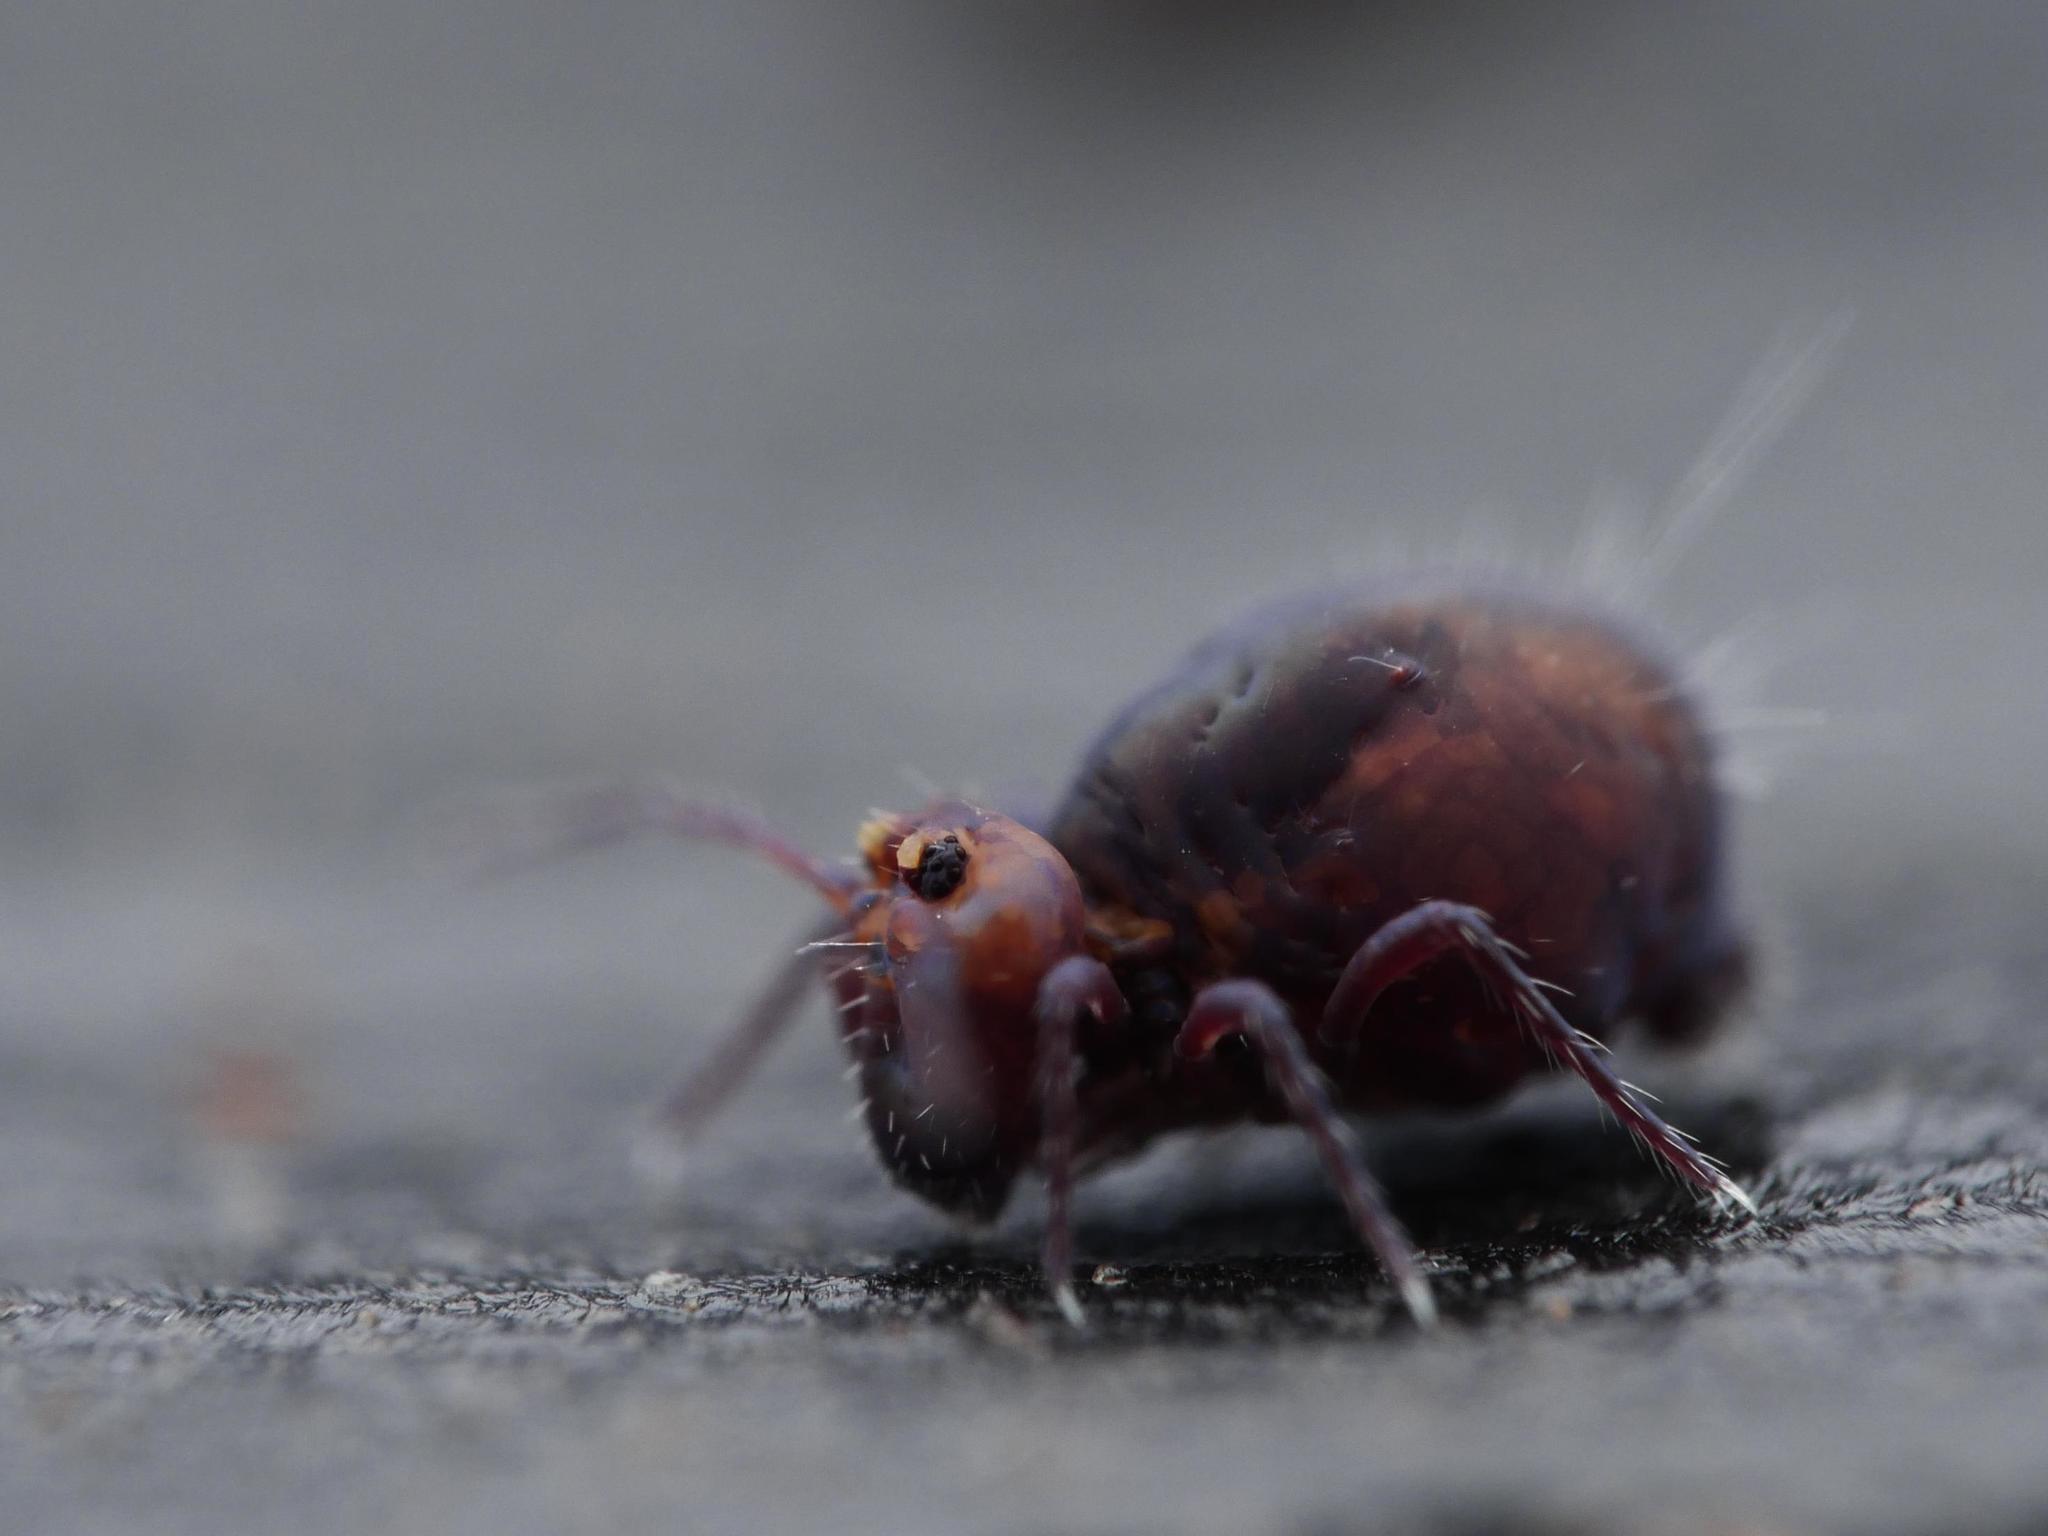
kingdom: Animalia
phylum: Arthropoda
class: Collembola
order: Symphypleona
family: Dicyrtomidae
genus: Dicyrtoma
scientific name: Dicyrtoma fusca
